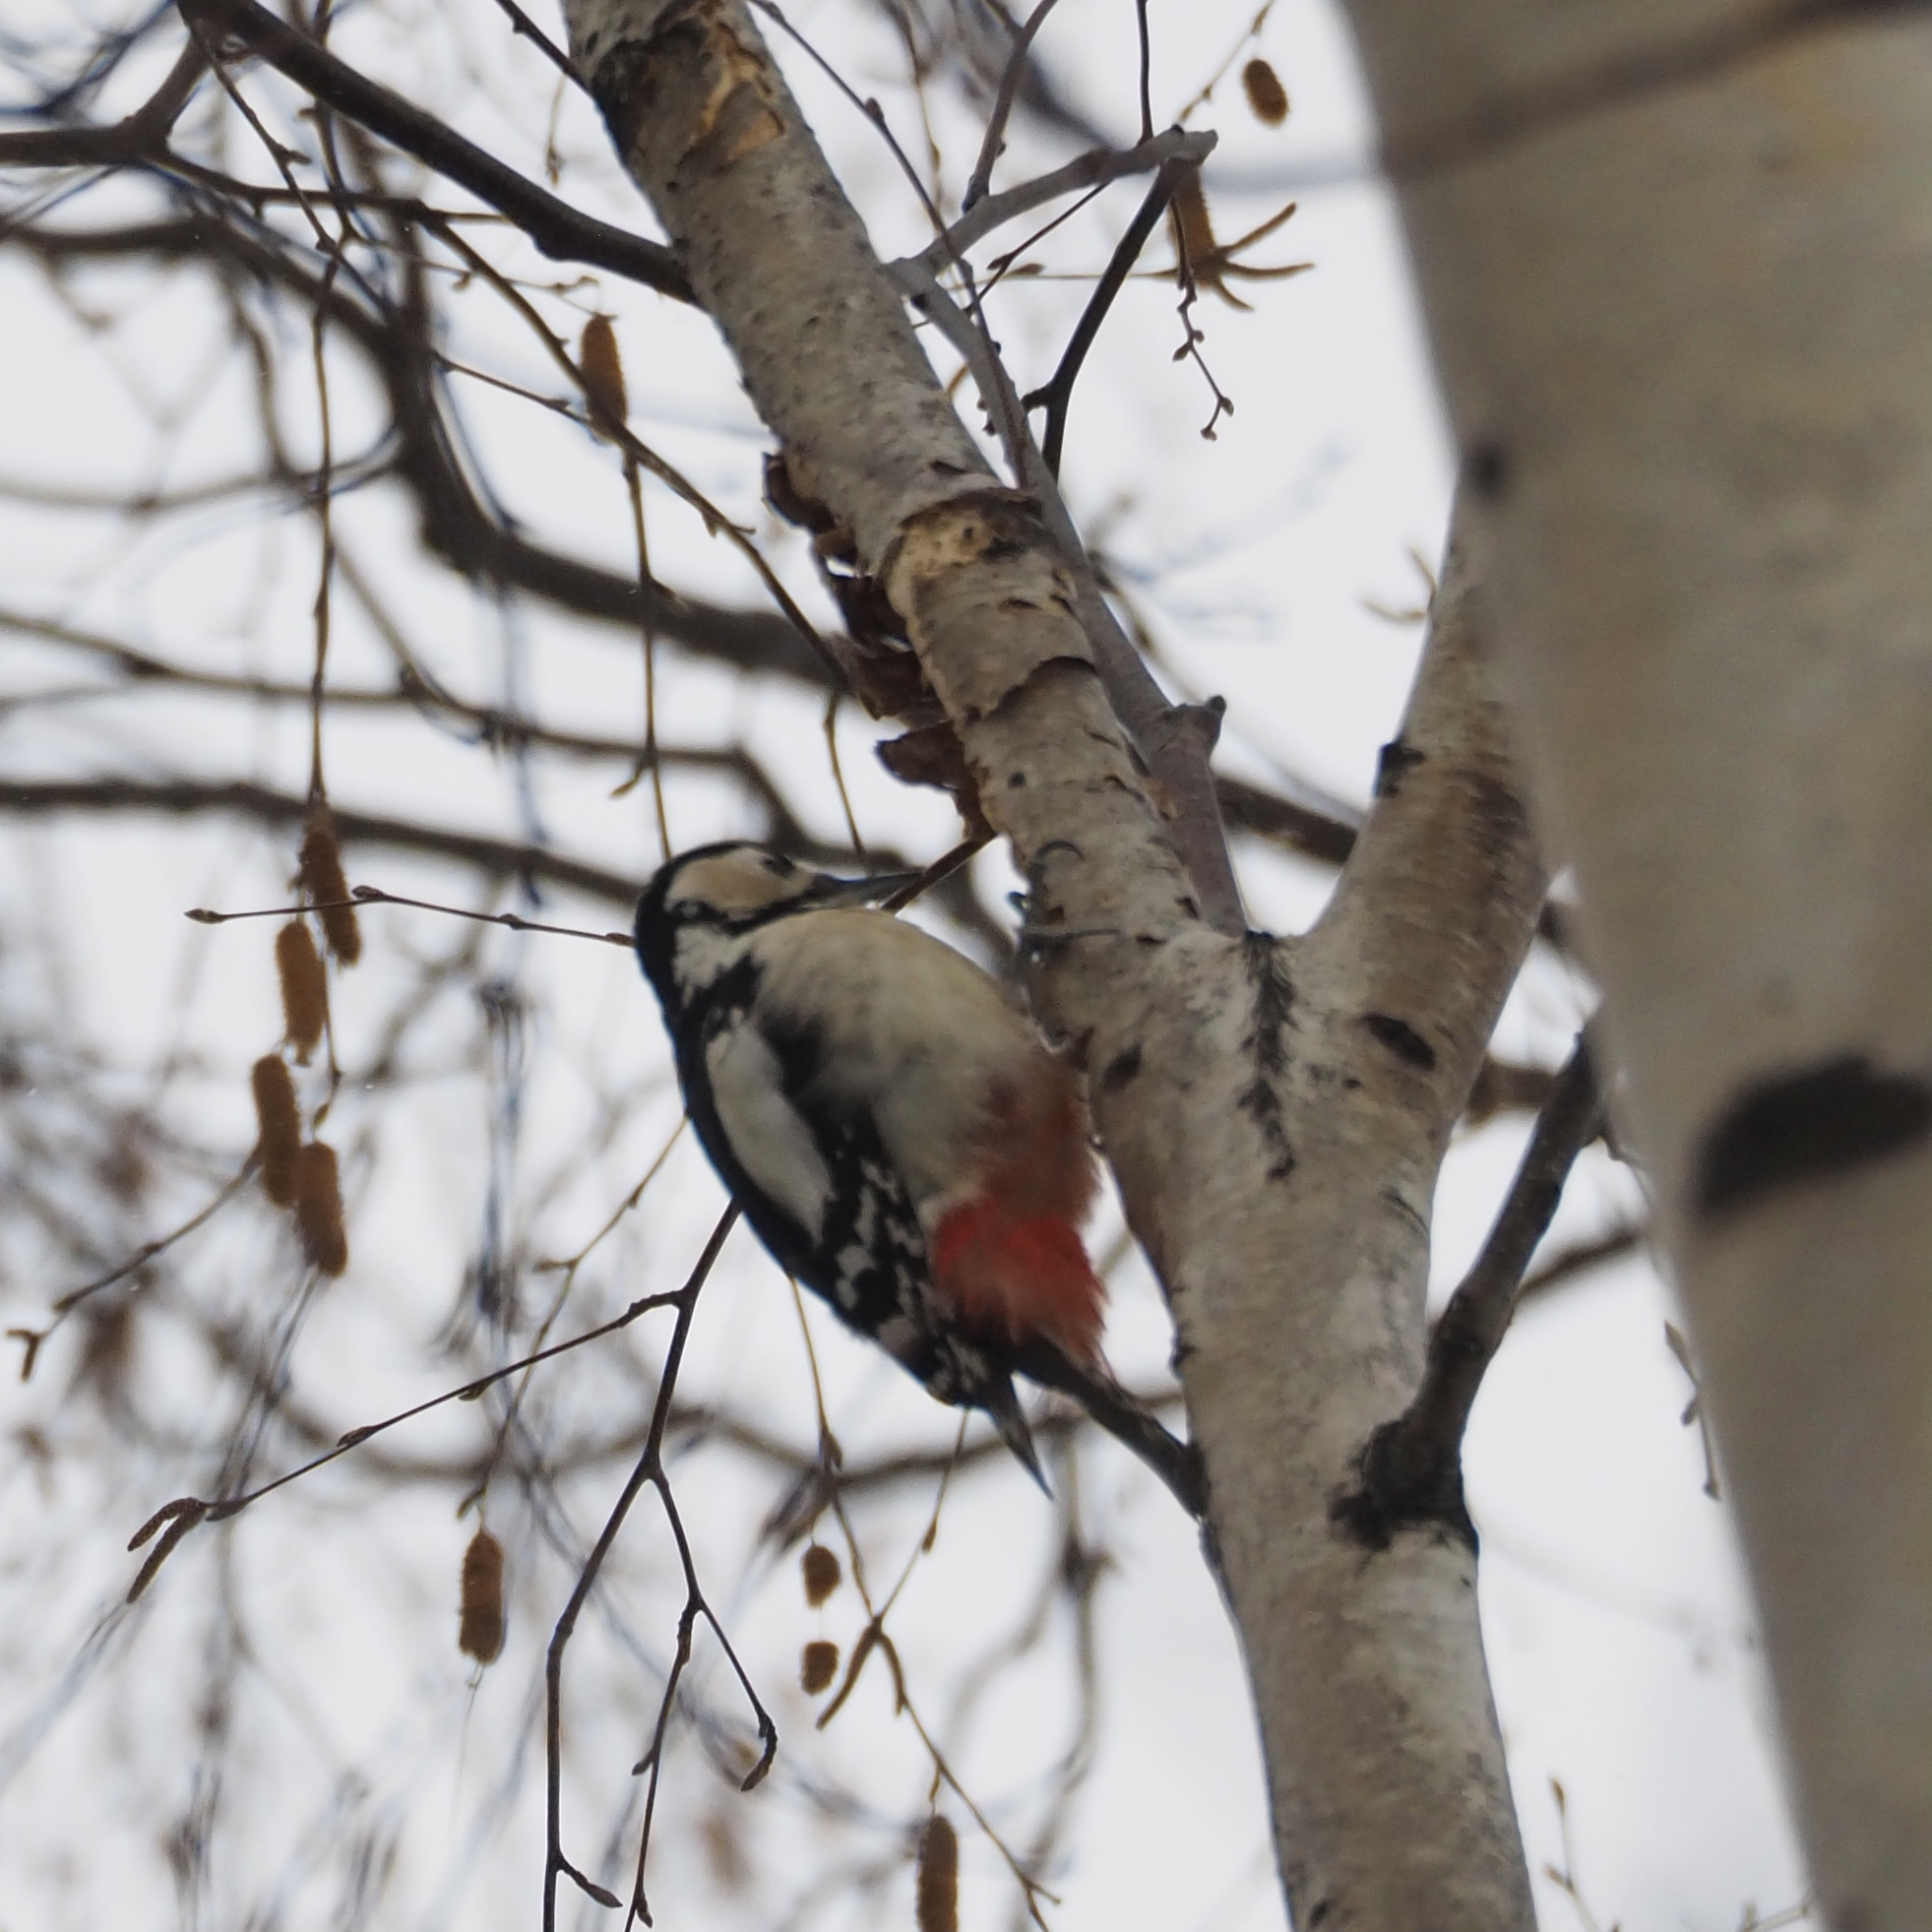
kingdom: Animalia
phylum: Chordata
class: Aves
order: Piciformes
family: Picidae
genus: Dendrocopos
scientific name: Dendrocopos major
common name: Great spotted woodpecker
